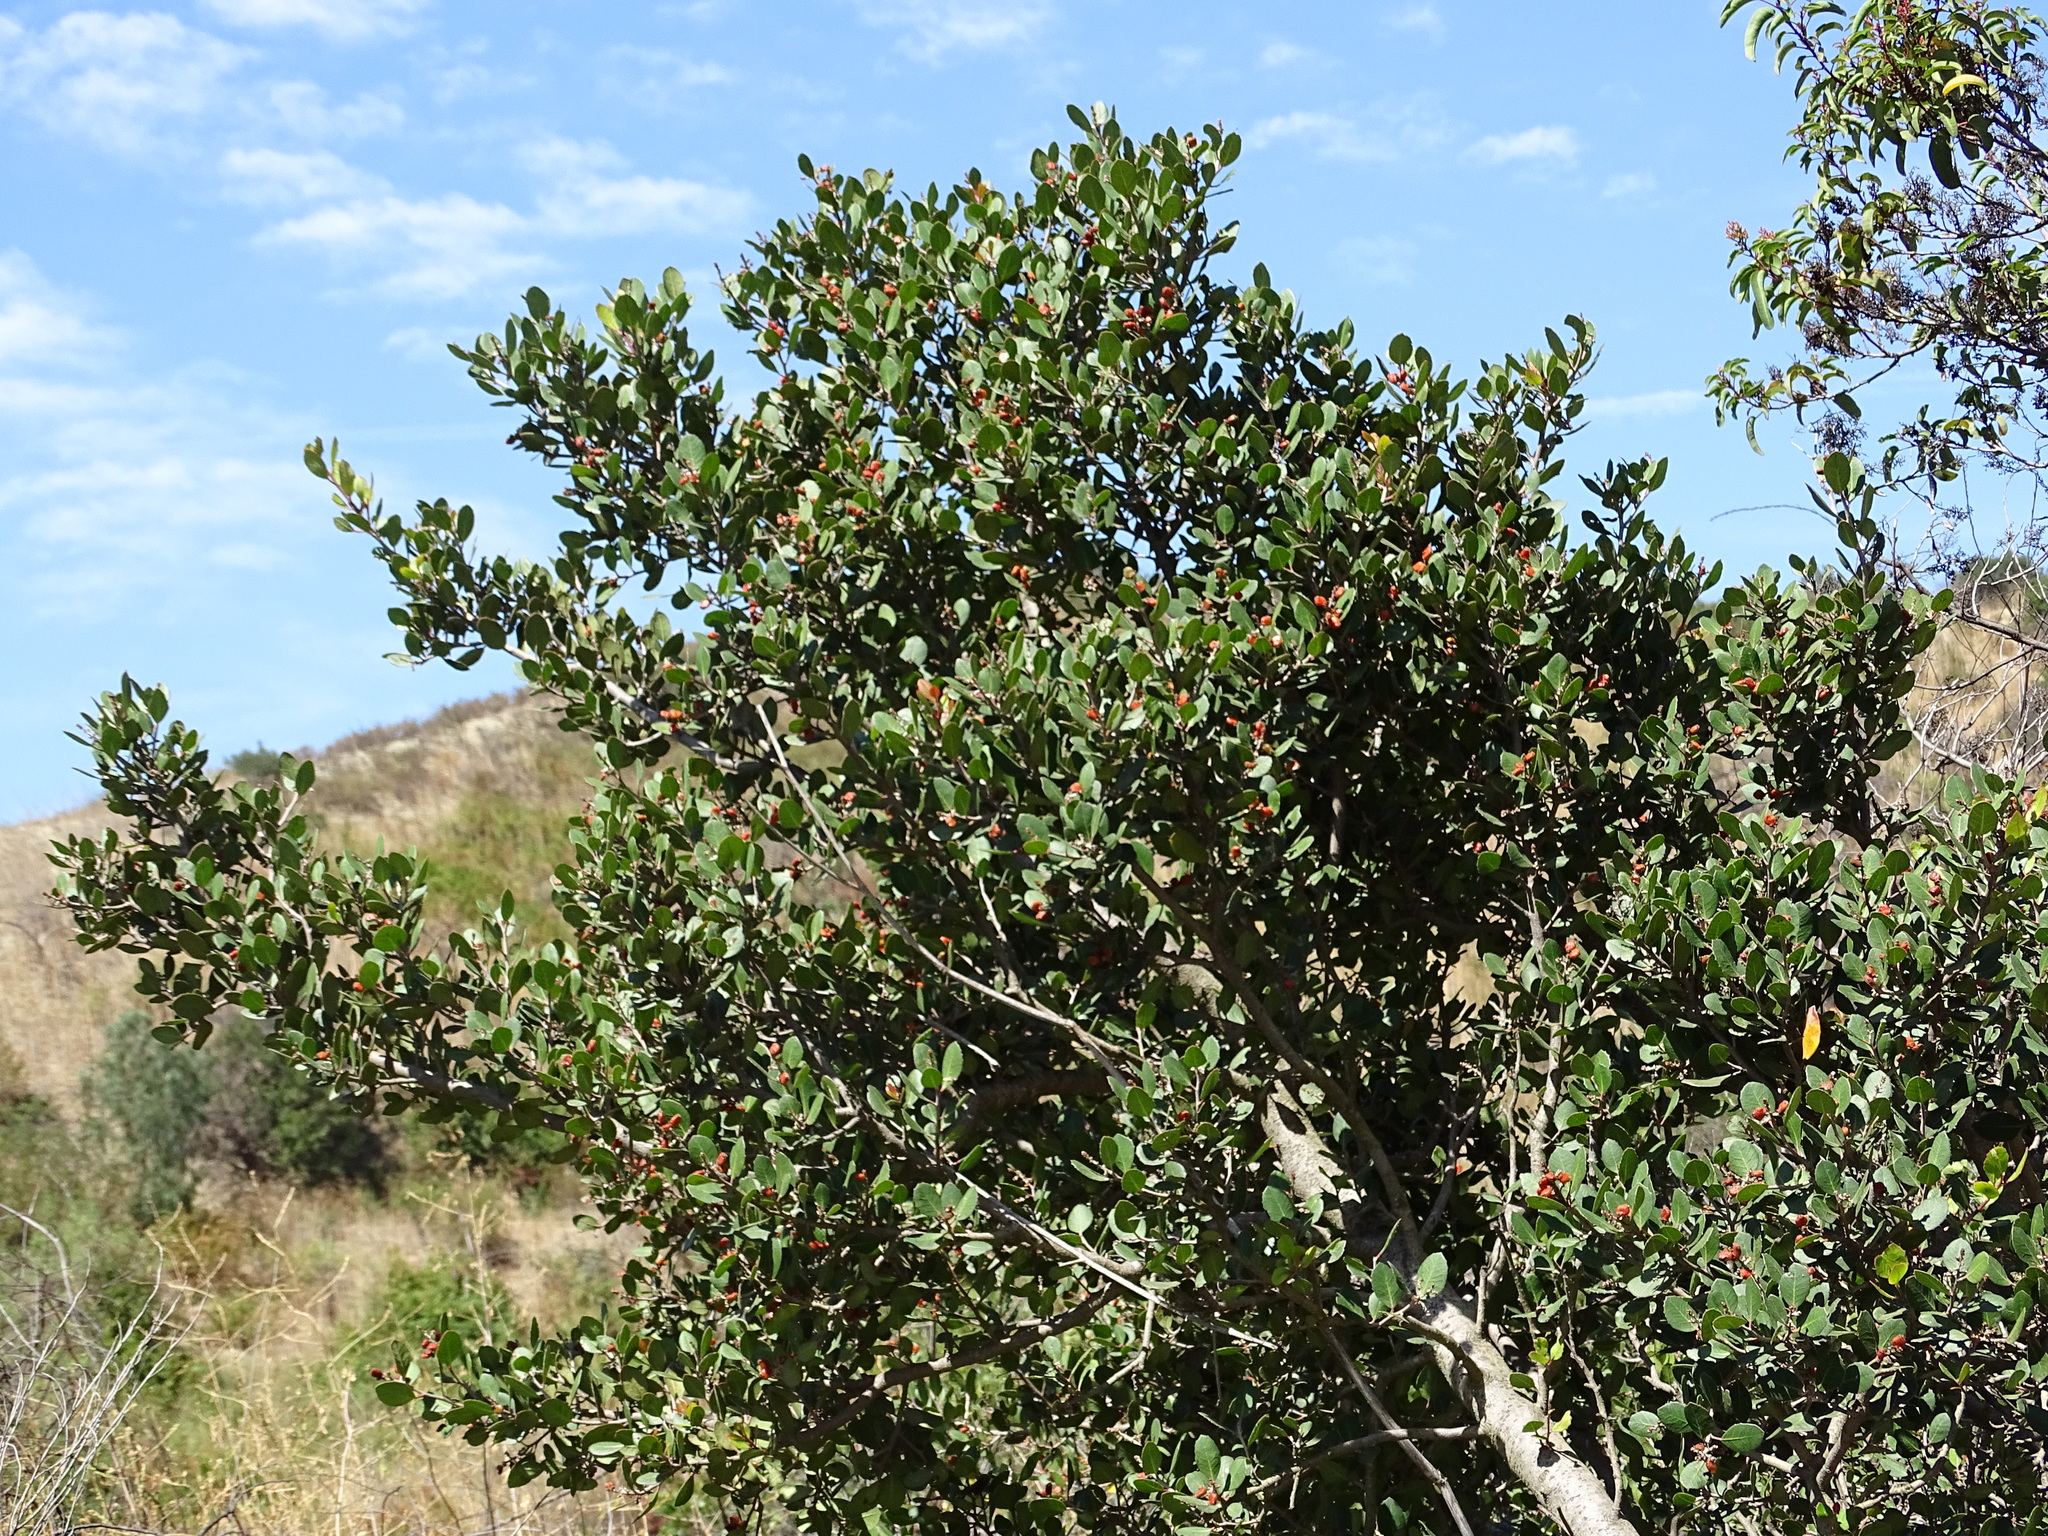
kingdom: Plantae
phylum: Tracheophyta
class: Magnoliopsida
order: Sapindales
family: Anacardiaceae
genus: Rhus
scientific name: Rhus integrifolia
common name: Lemonade sumac
